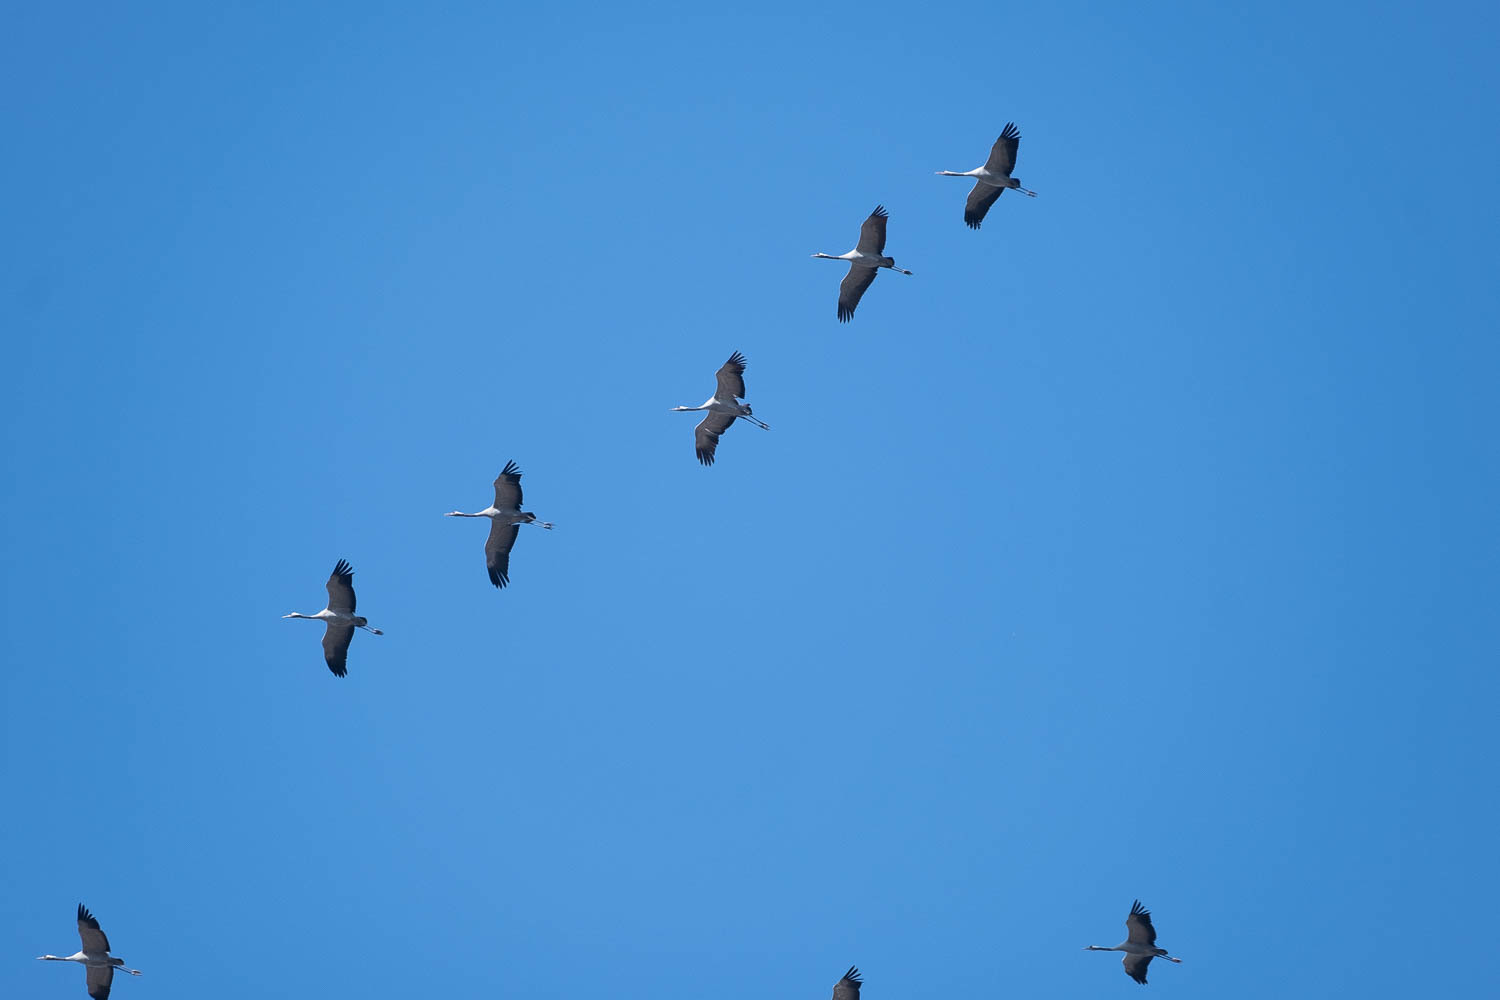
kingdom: Animalia
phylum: Chordata
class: Aves
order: Gruiformes
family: Gruidae
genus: Grus
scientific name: Grus grus
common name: Common crane
